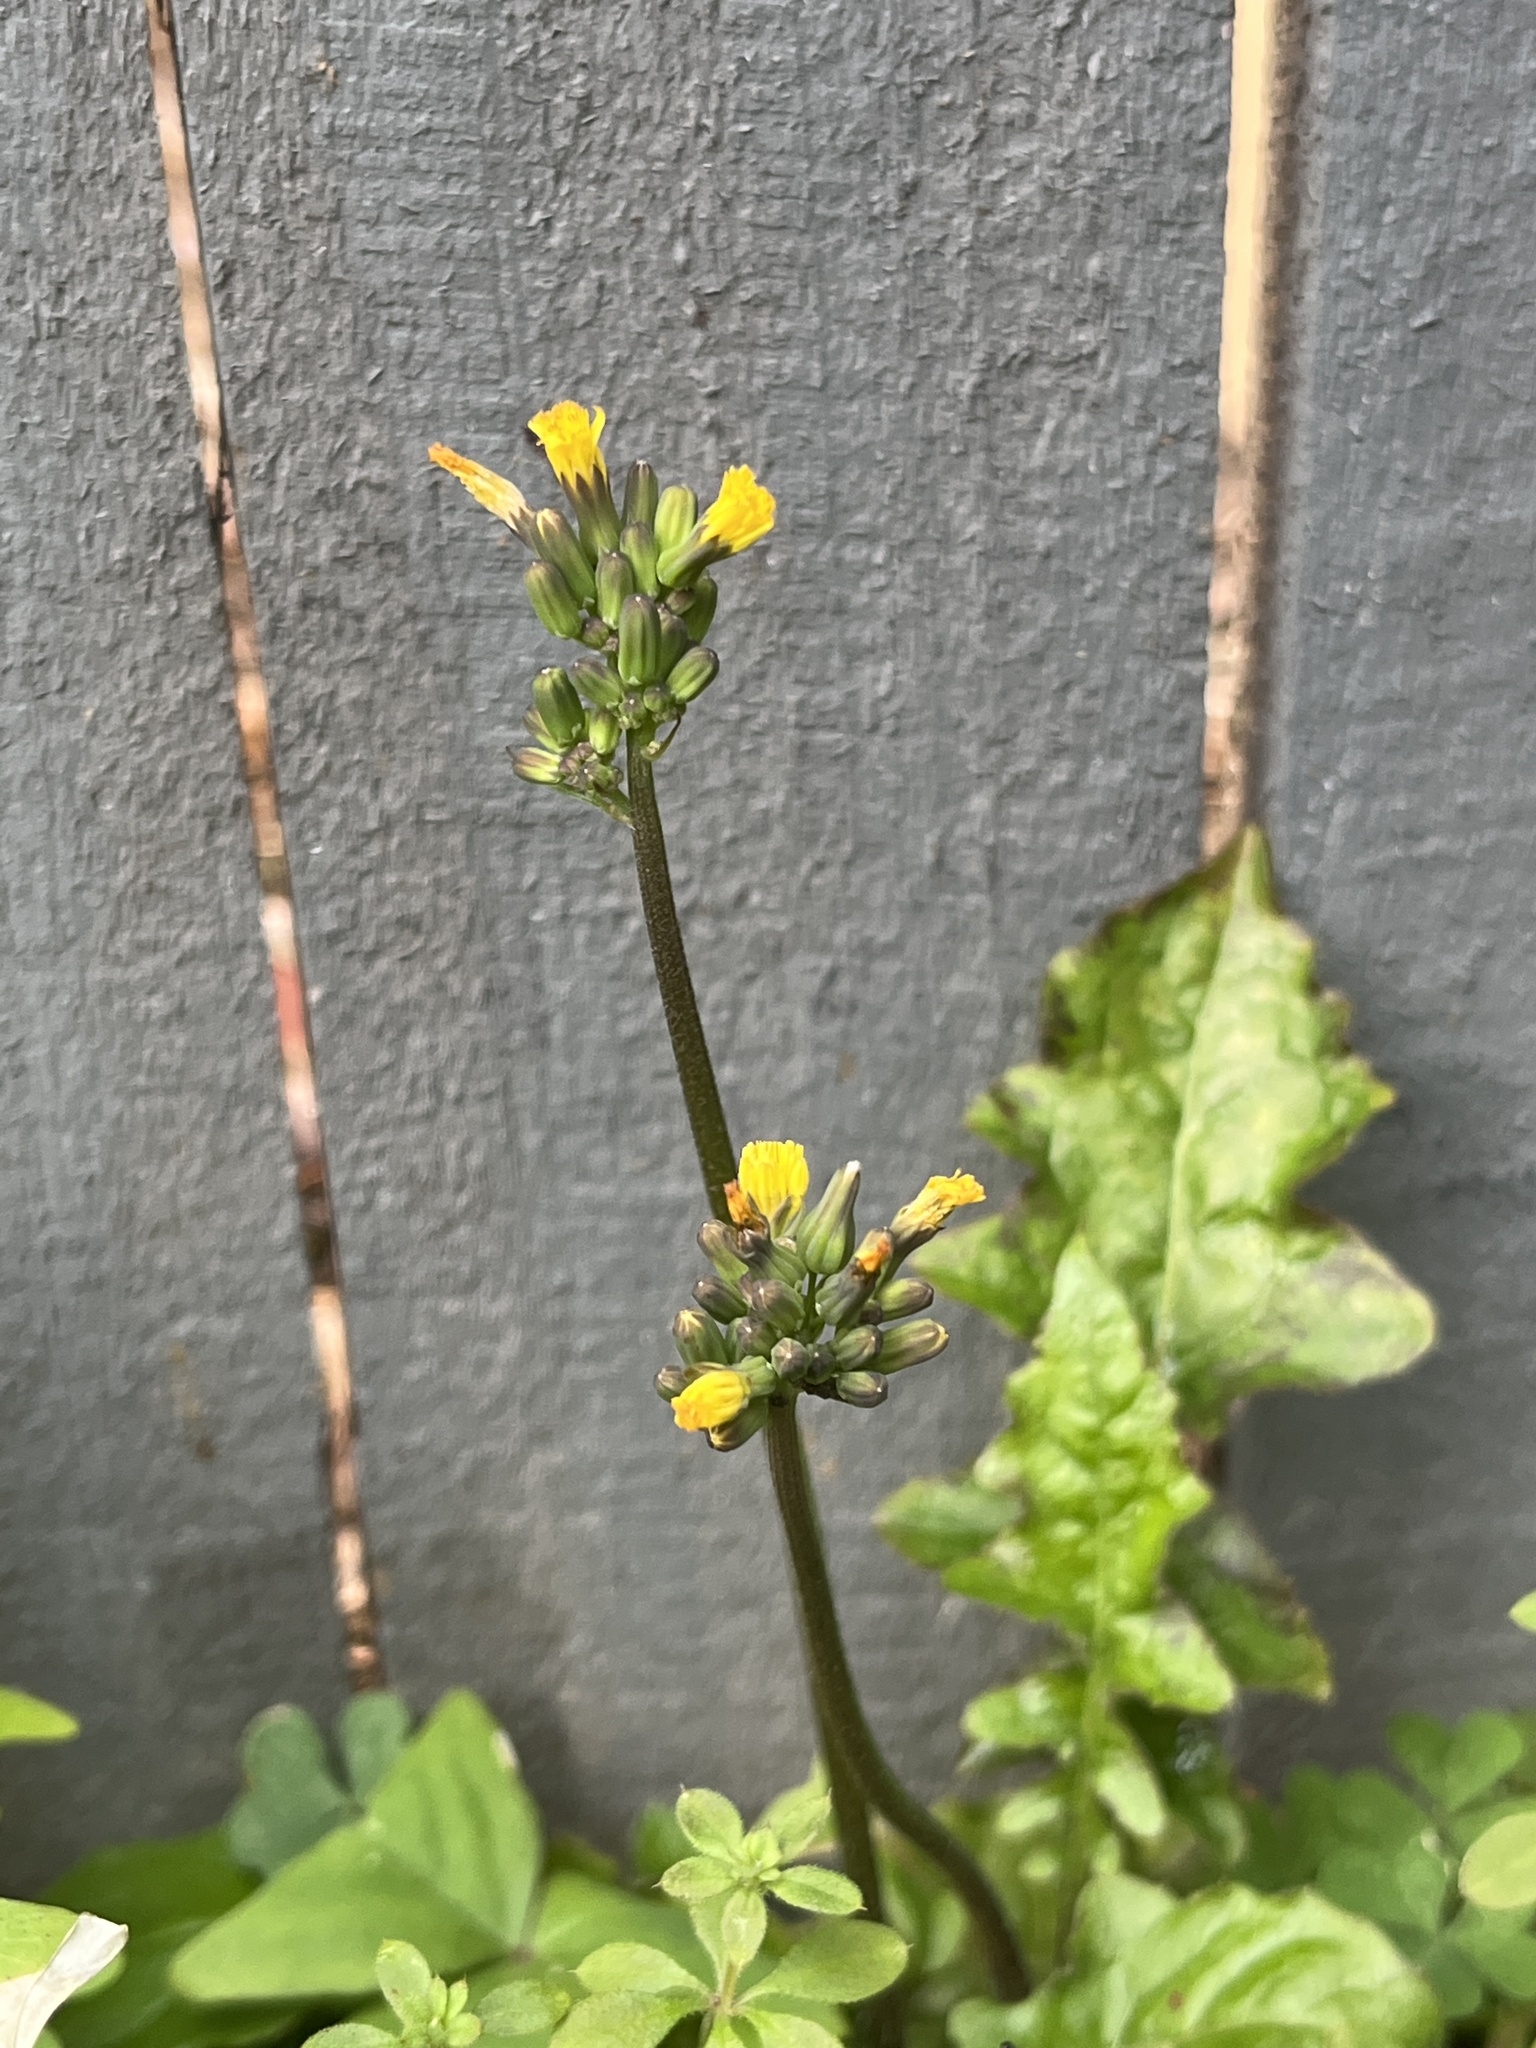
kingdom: Plantae
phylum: Tracheophyta
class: Magnoliopsida
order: Asterales
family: Asteraceae
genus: Youngia
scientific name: Youngia japonica
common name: Oriental false hawksbeard
